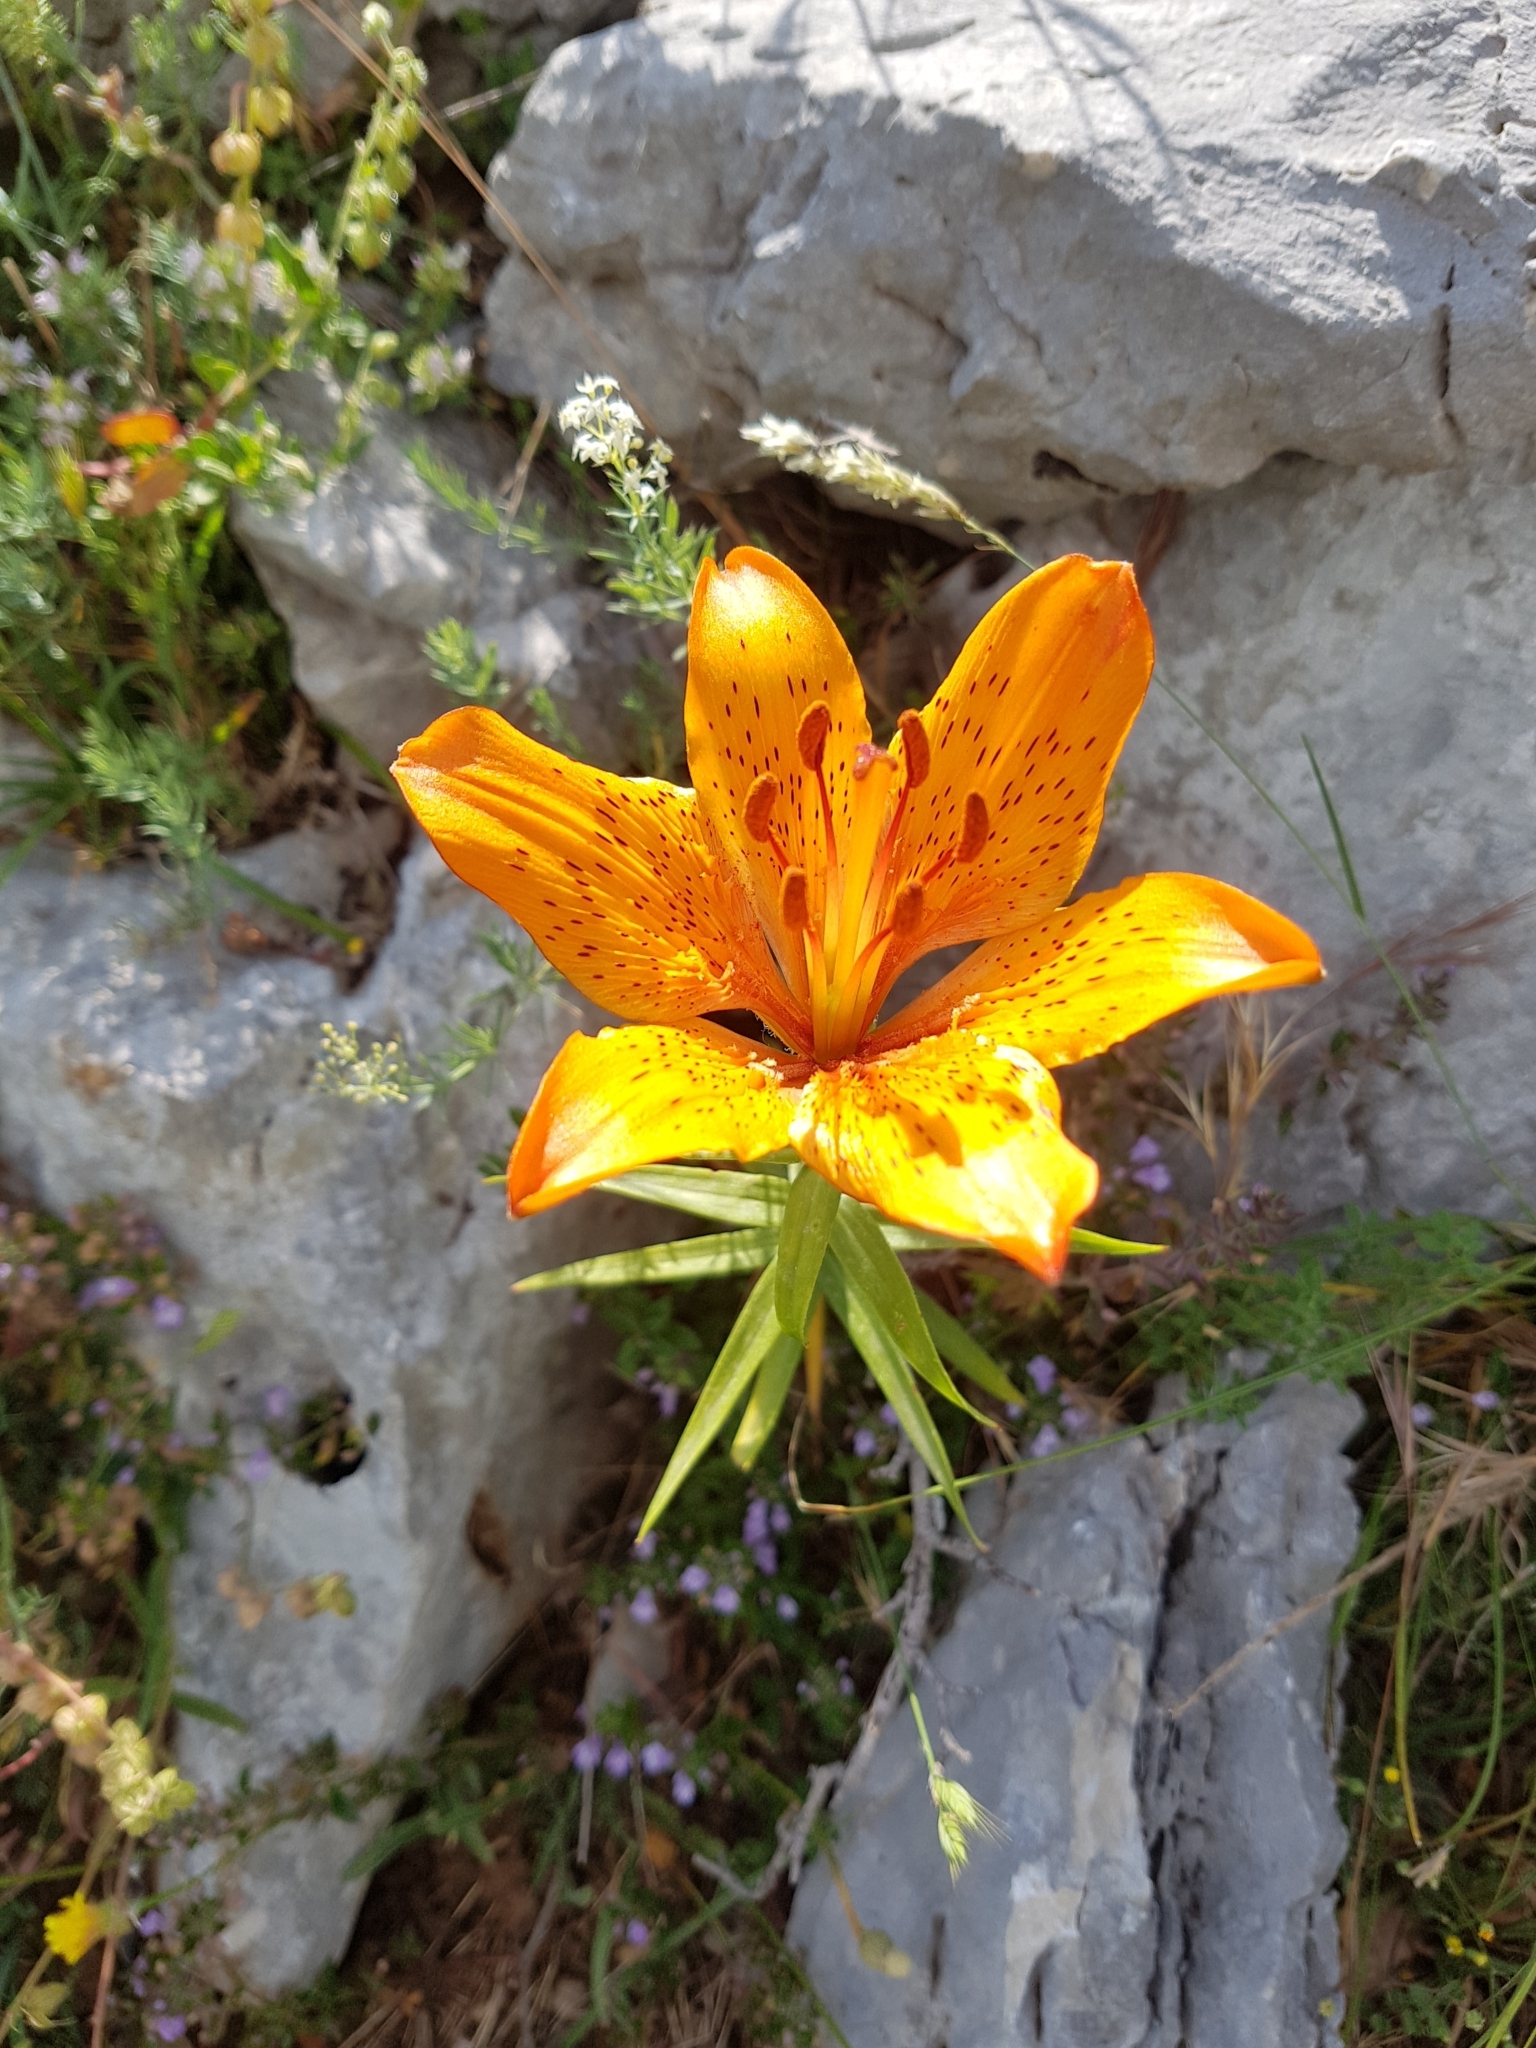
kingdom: Plantae
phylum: Tracheophyta
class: Liliopsida
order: Liliales
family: Liliaceae
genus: Lilium
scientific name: Lilium bulbiferum
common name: Orange lily
